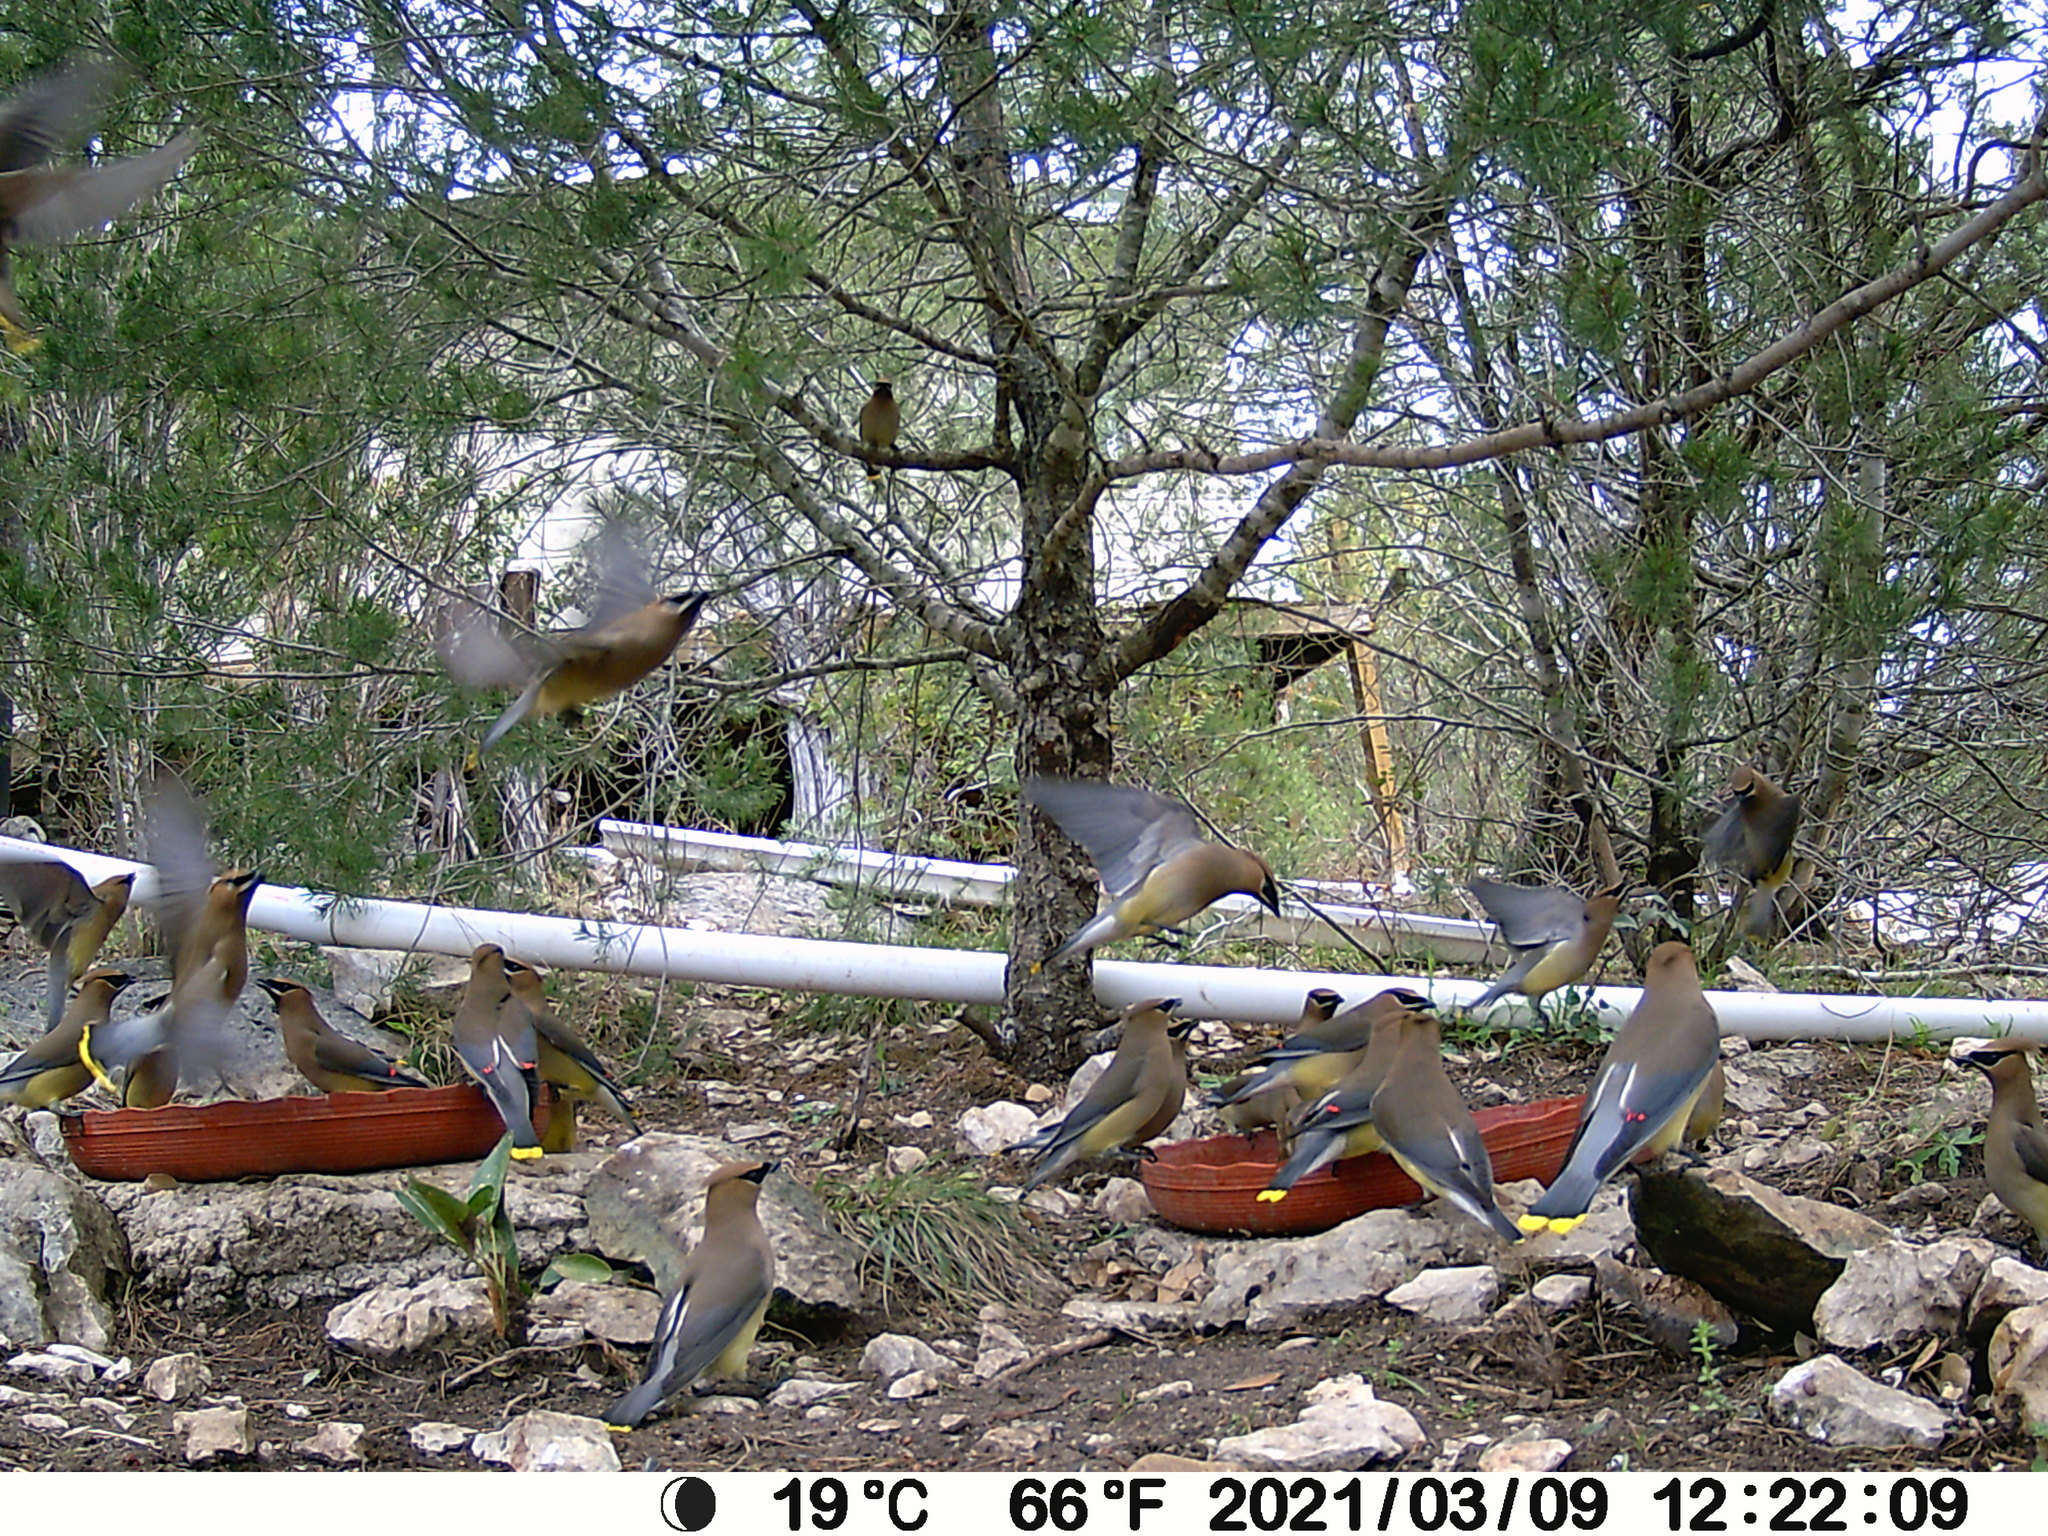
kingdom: Animalia
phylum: Chordata
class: Aves
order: Passeriformes
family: Bombycillidae
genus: Bombycilla
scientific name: Bombycilla cedrorum
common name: Cedar waxwing
